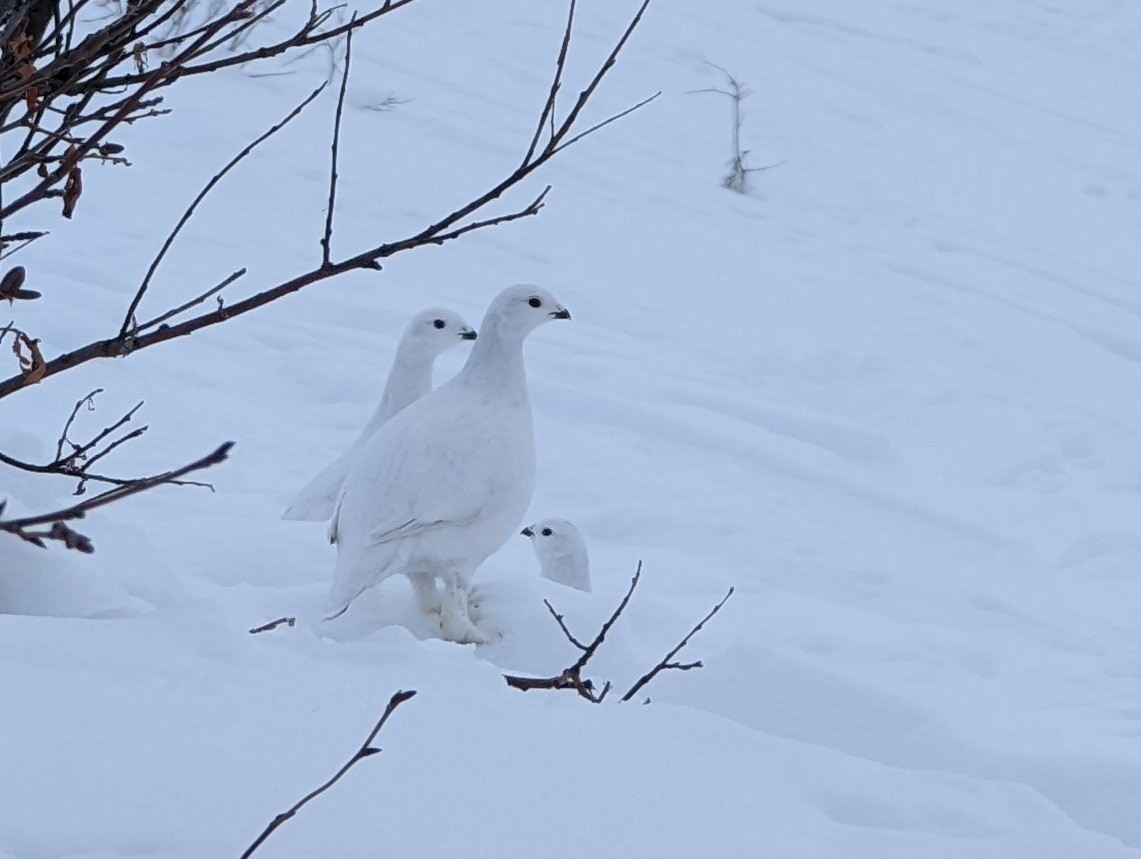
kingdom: Animalia
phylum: Chordata
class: Aves
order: Galliformes
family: Phasianidae
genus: Lagopus
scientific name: Lagopus lagopus
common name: Willow ptarmigan
